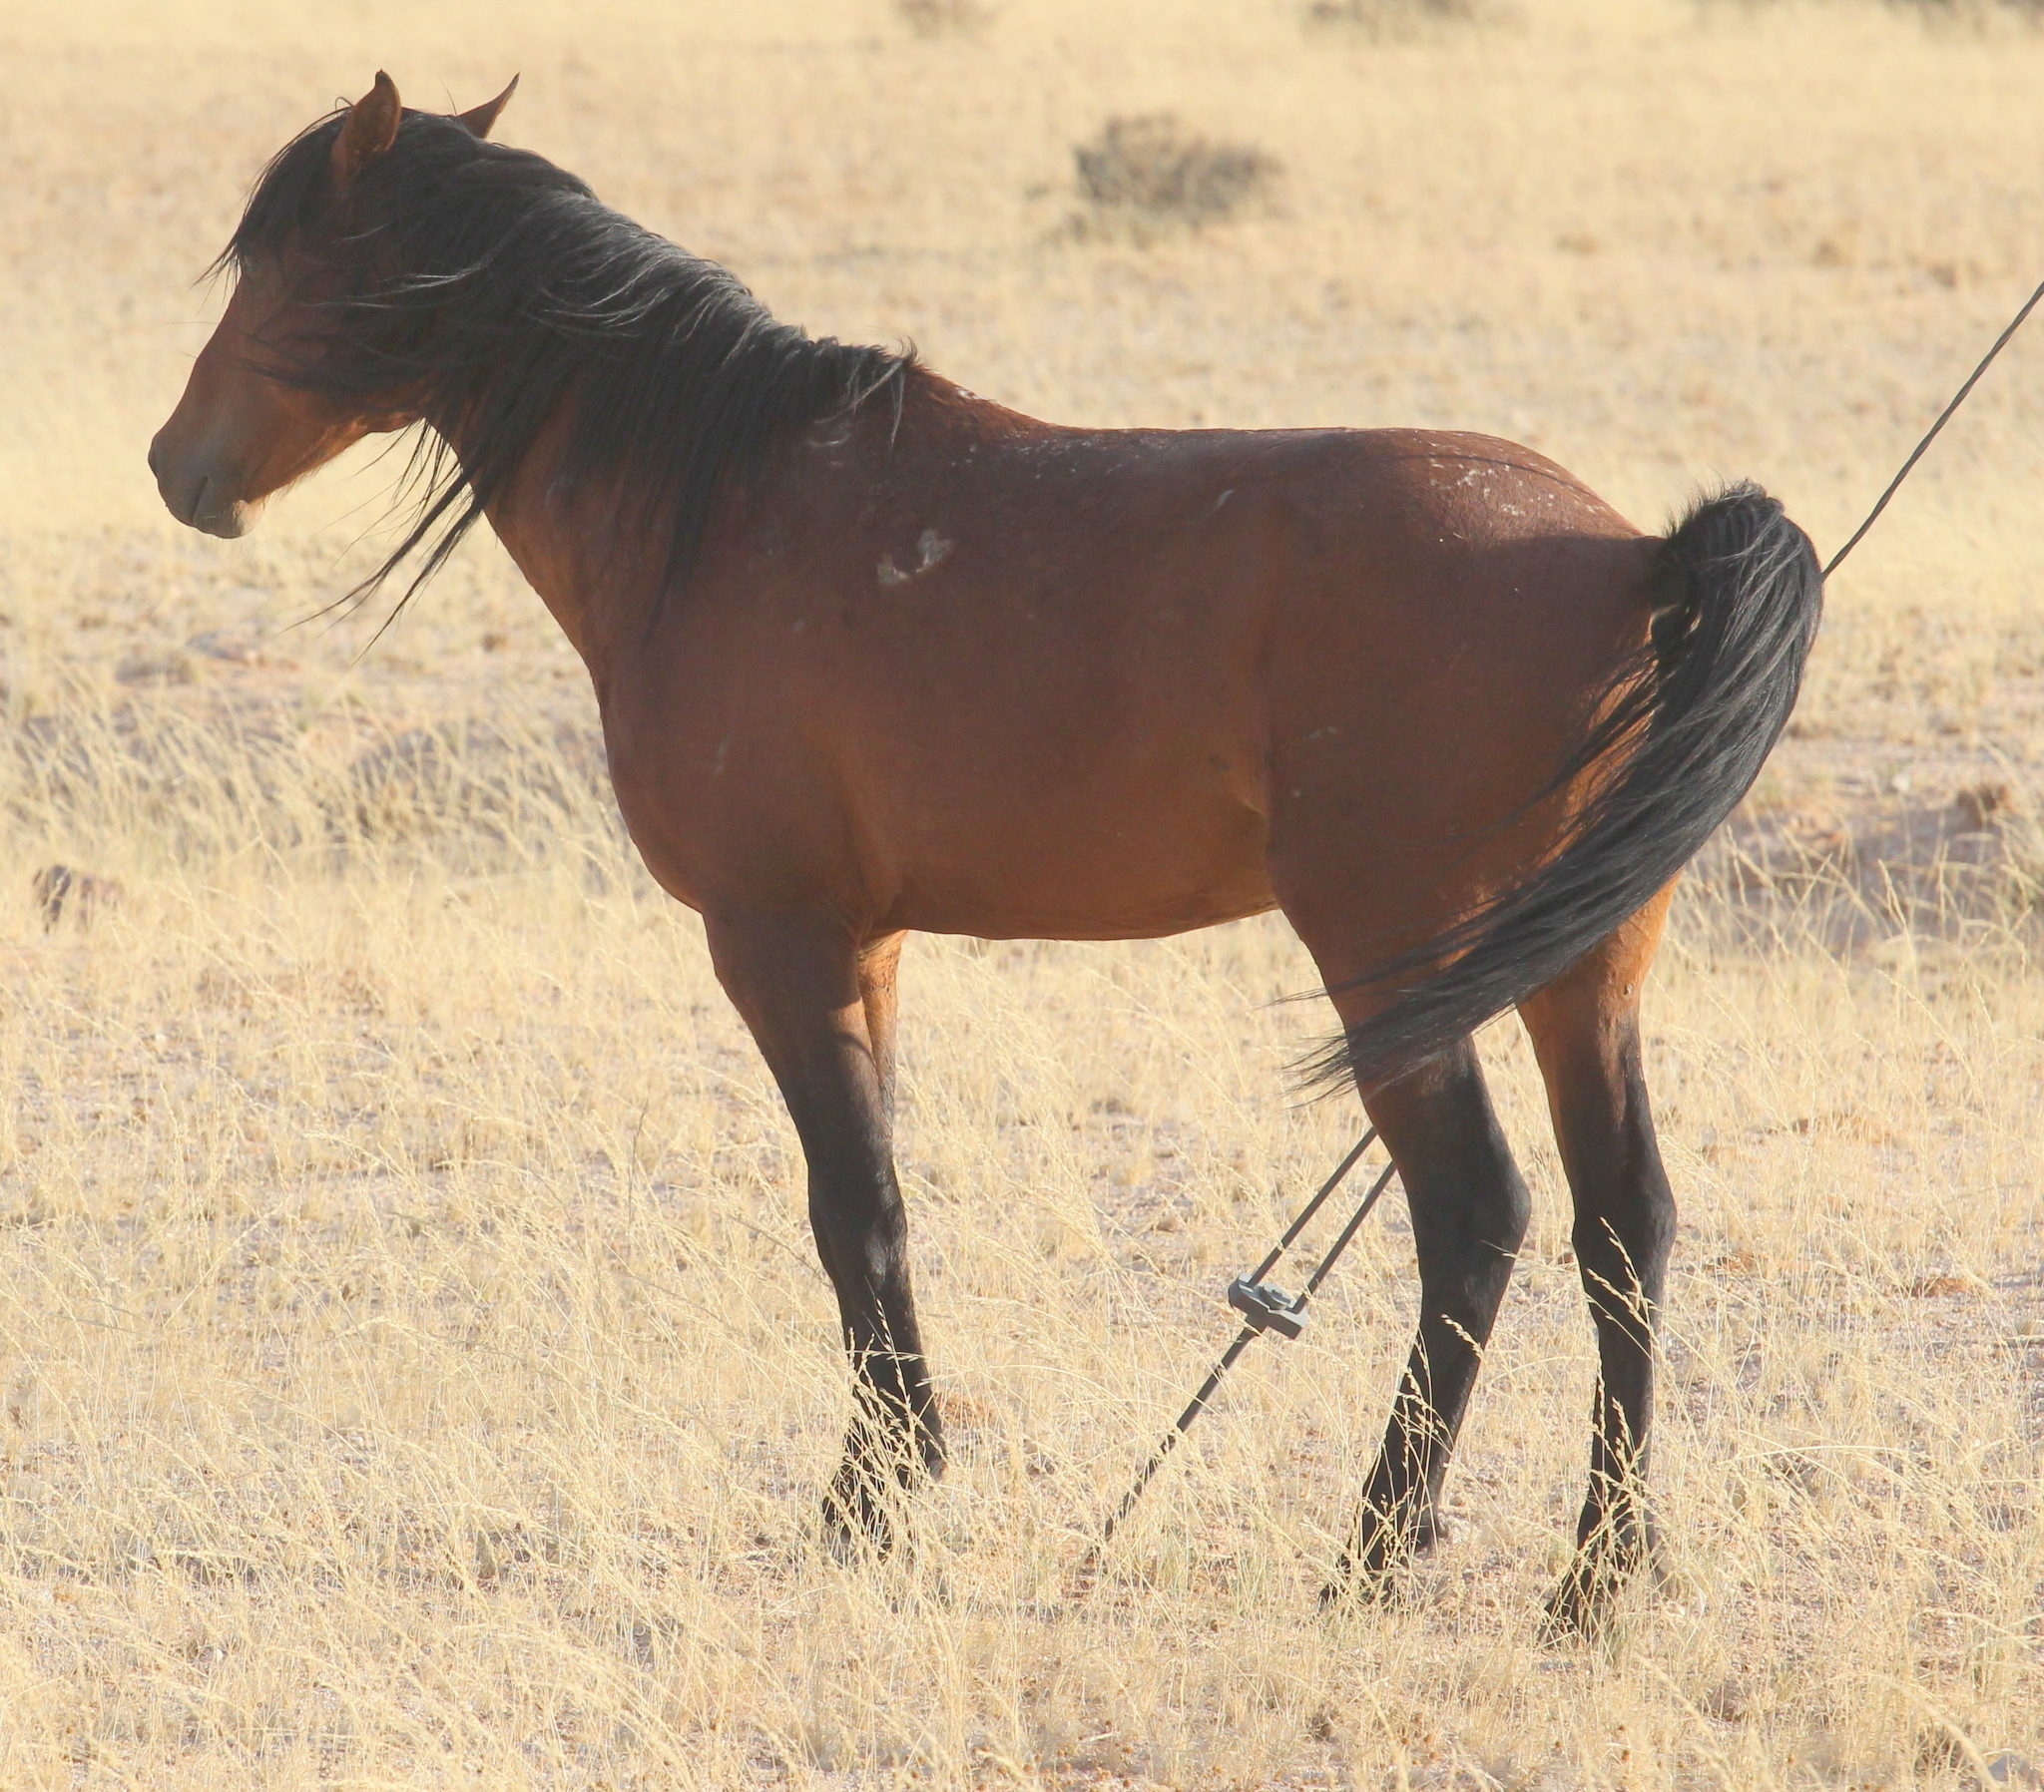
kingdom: Animalia
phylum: Chordata
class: Mammalia
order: Perissodactyla
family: Equidae
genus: Equus
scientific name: Equus caballus
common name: Horse
